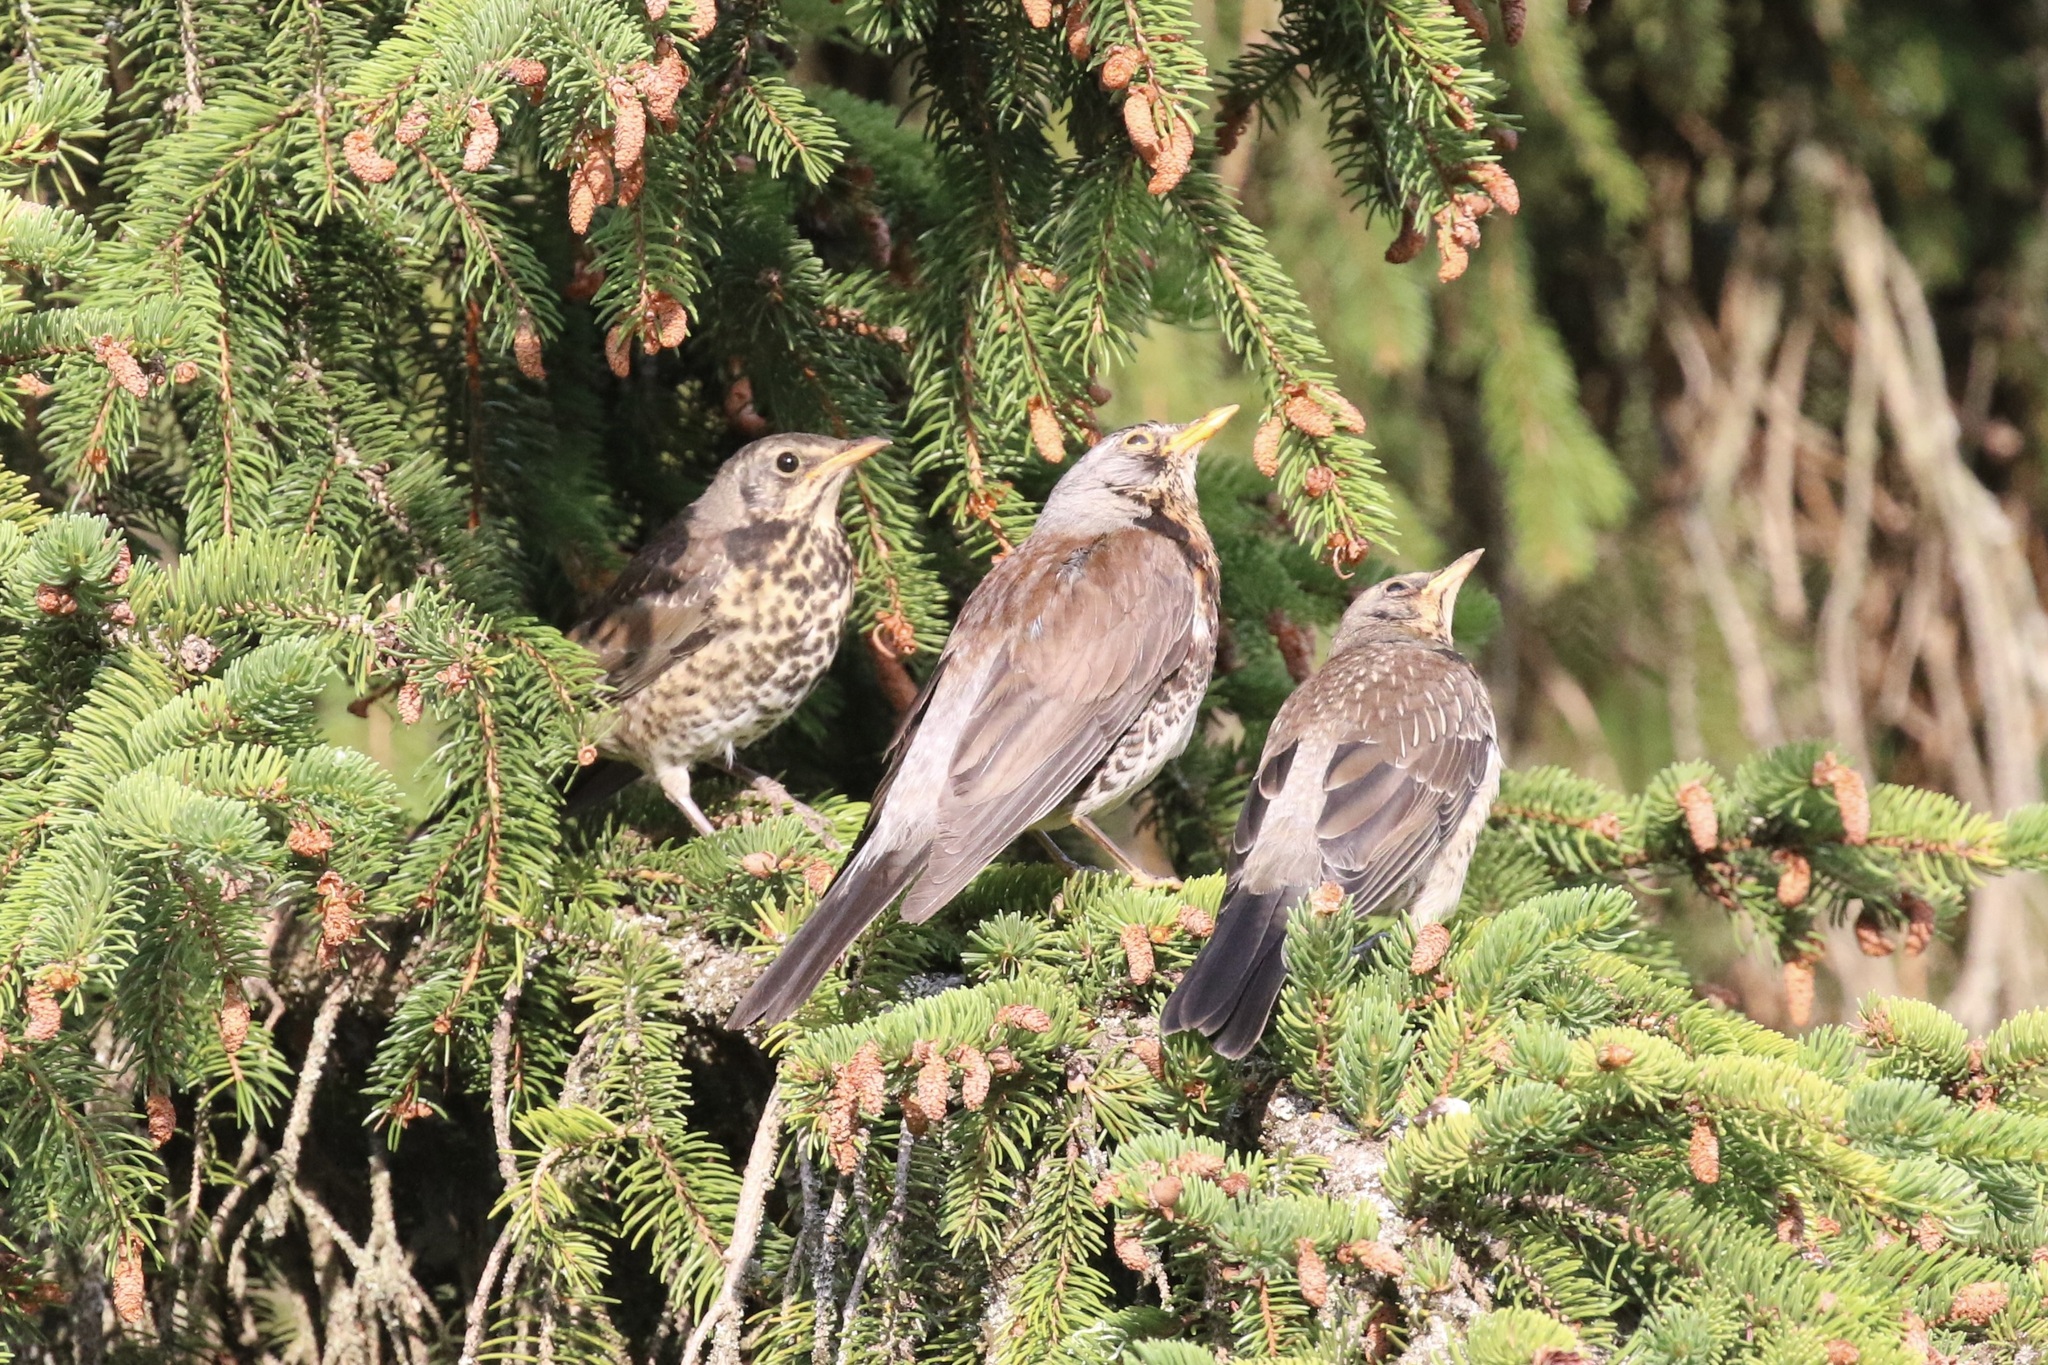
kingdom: Animalia
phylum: Chordata
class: Aves
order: Passeriformes
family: Turdidae
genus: Turdus
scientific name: Turdus pilaris
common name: Fieldfare
